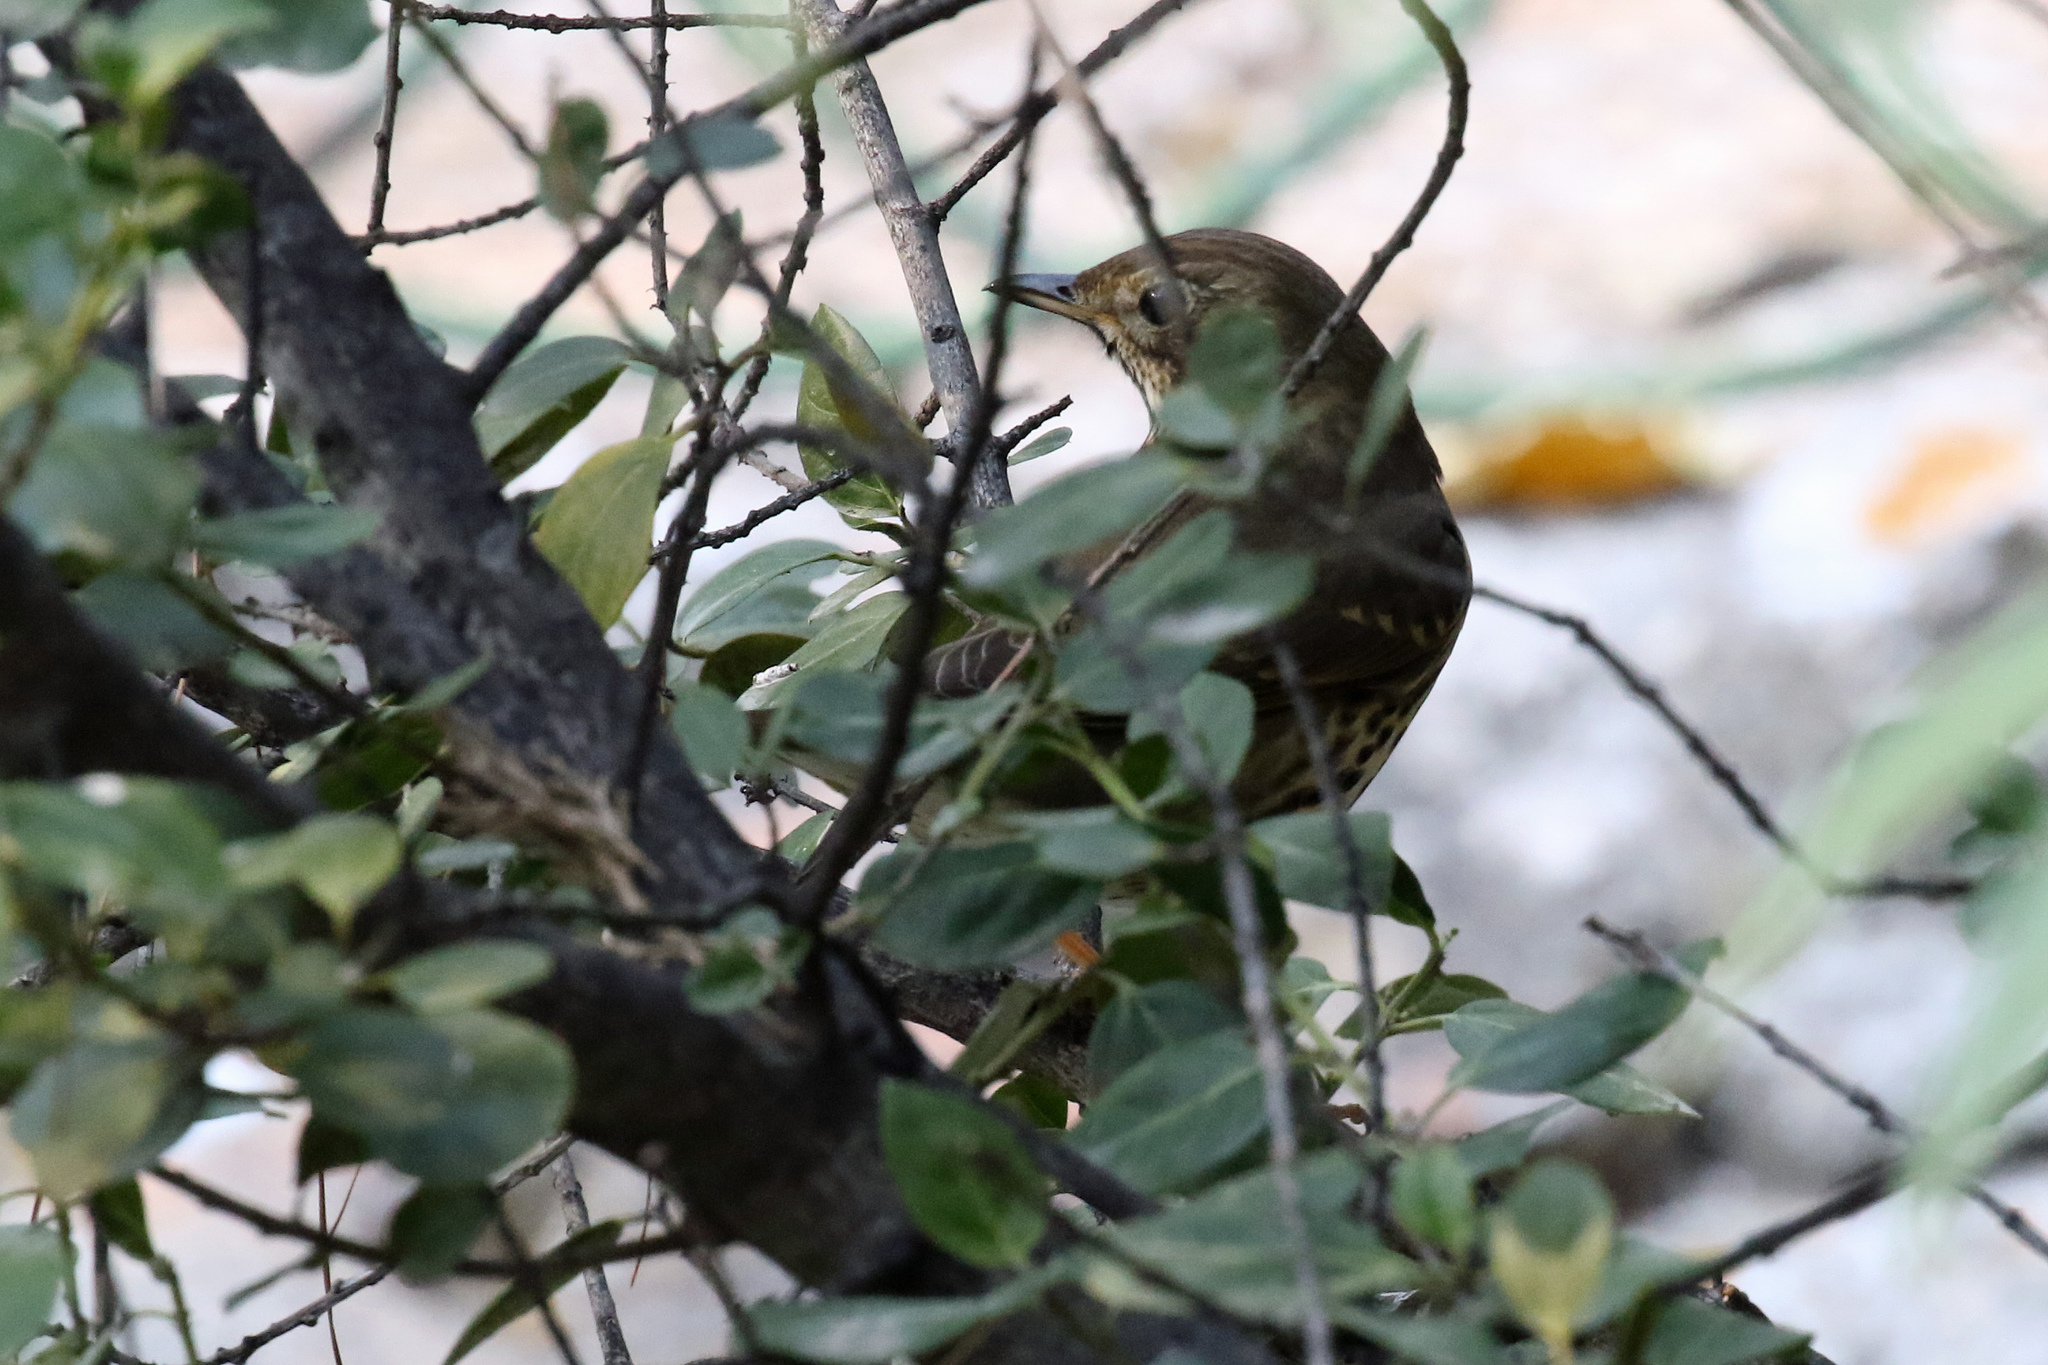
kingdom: Animalia
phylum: Chordata
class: Aves
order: Passeriformes
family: Turdidae
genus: Turdus
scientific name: Turdus philomelos
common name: Song thrush
